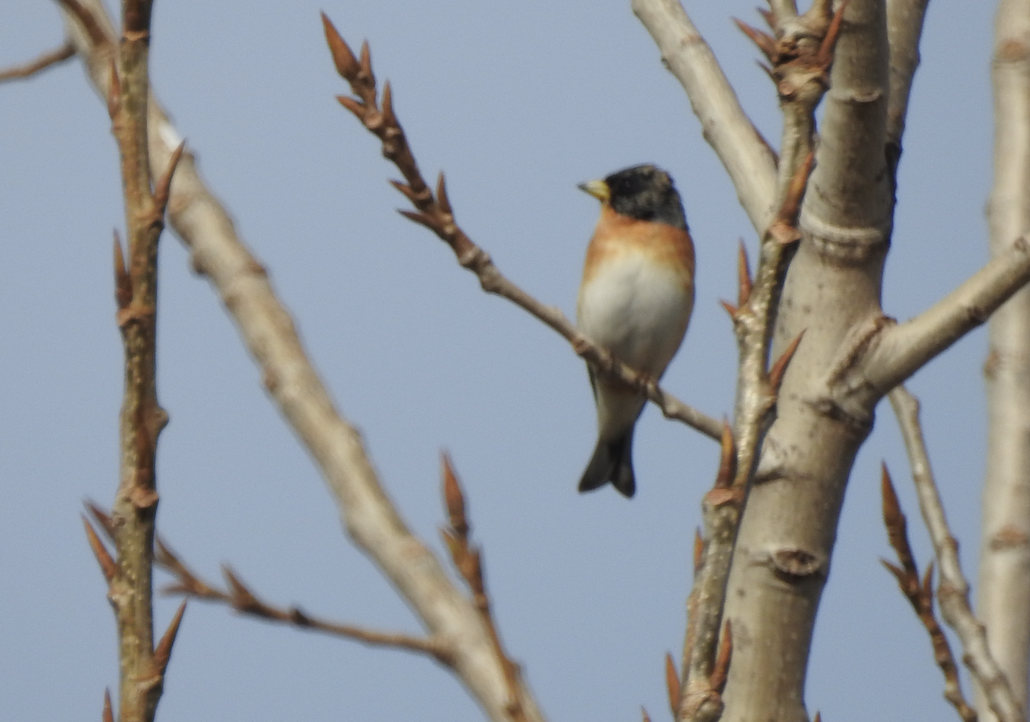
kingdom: Animalia
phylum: Chordata
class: Aves
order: Passeriformes
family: Fringillidae
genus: Fringilla
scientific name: Fringilla montifringilla
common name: Brambling
